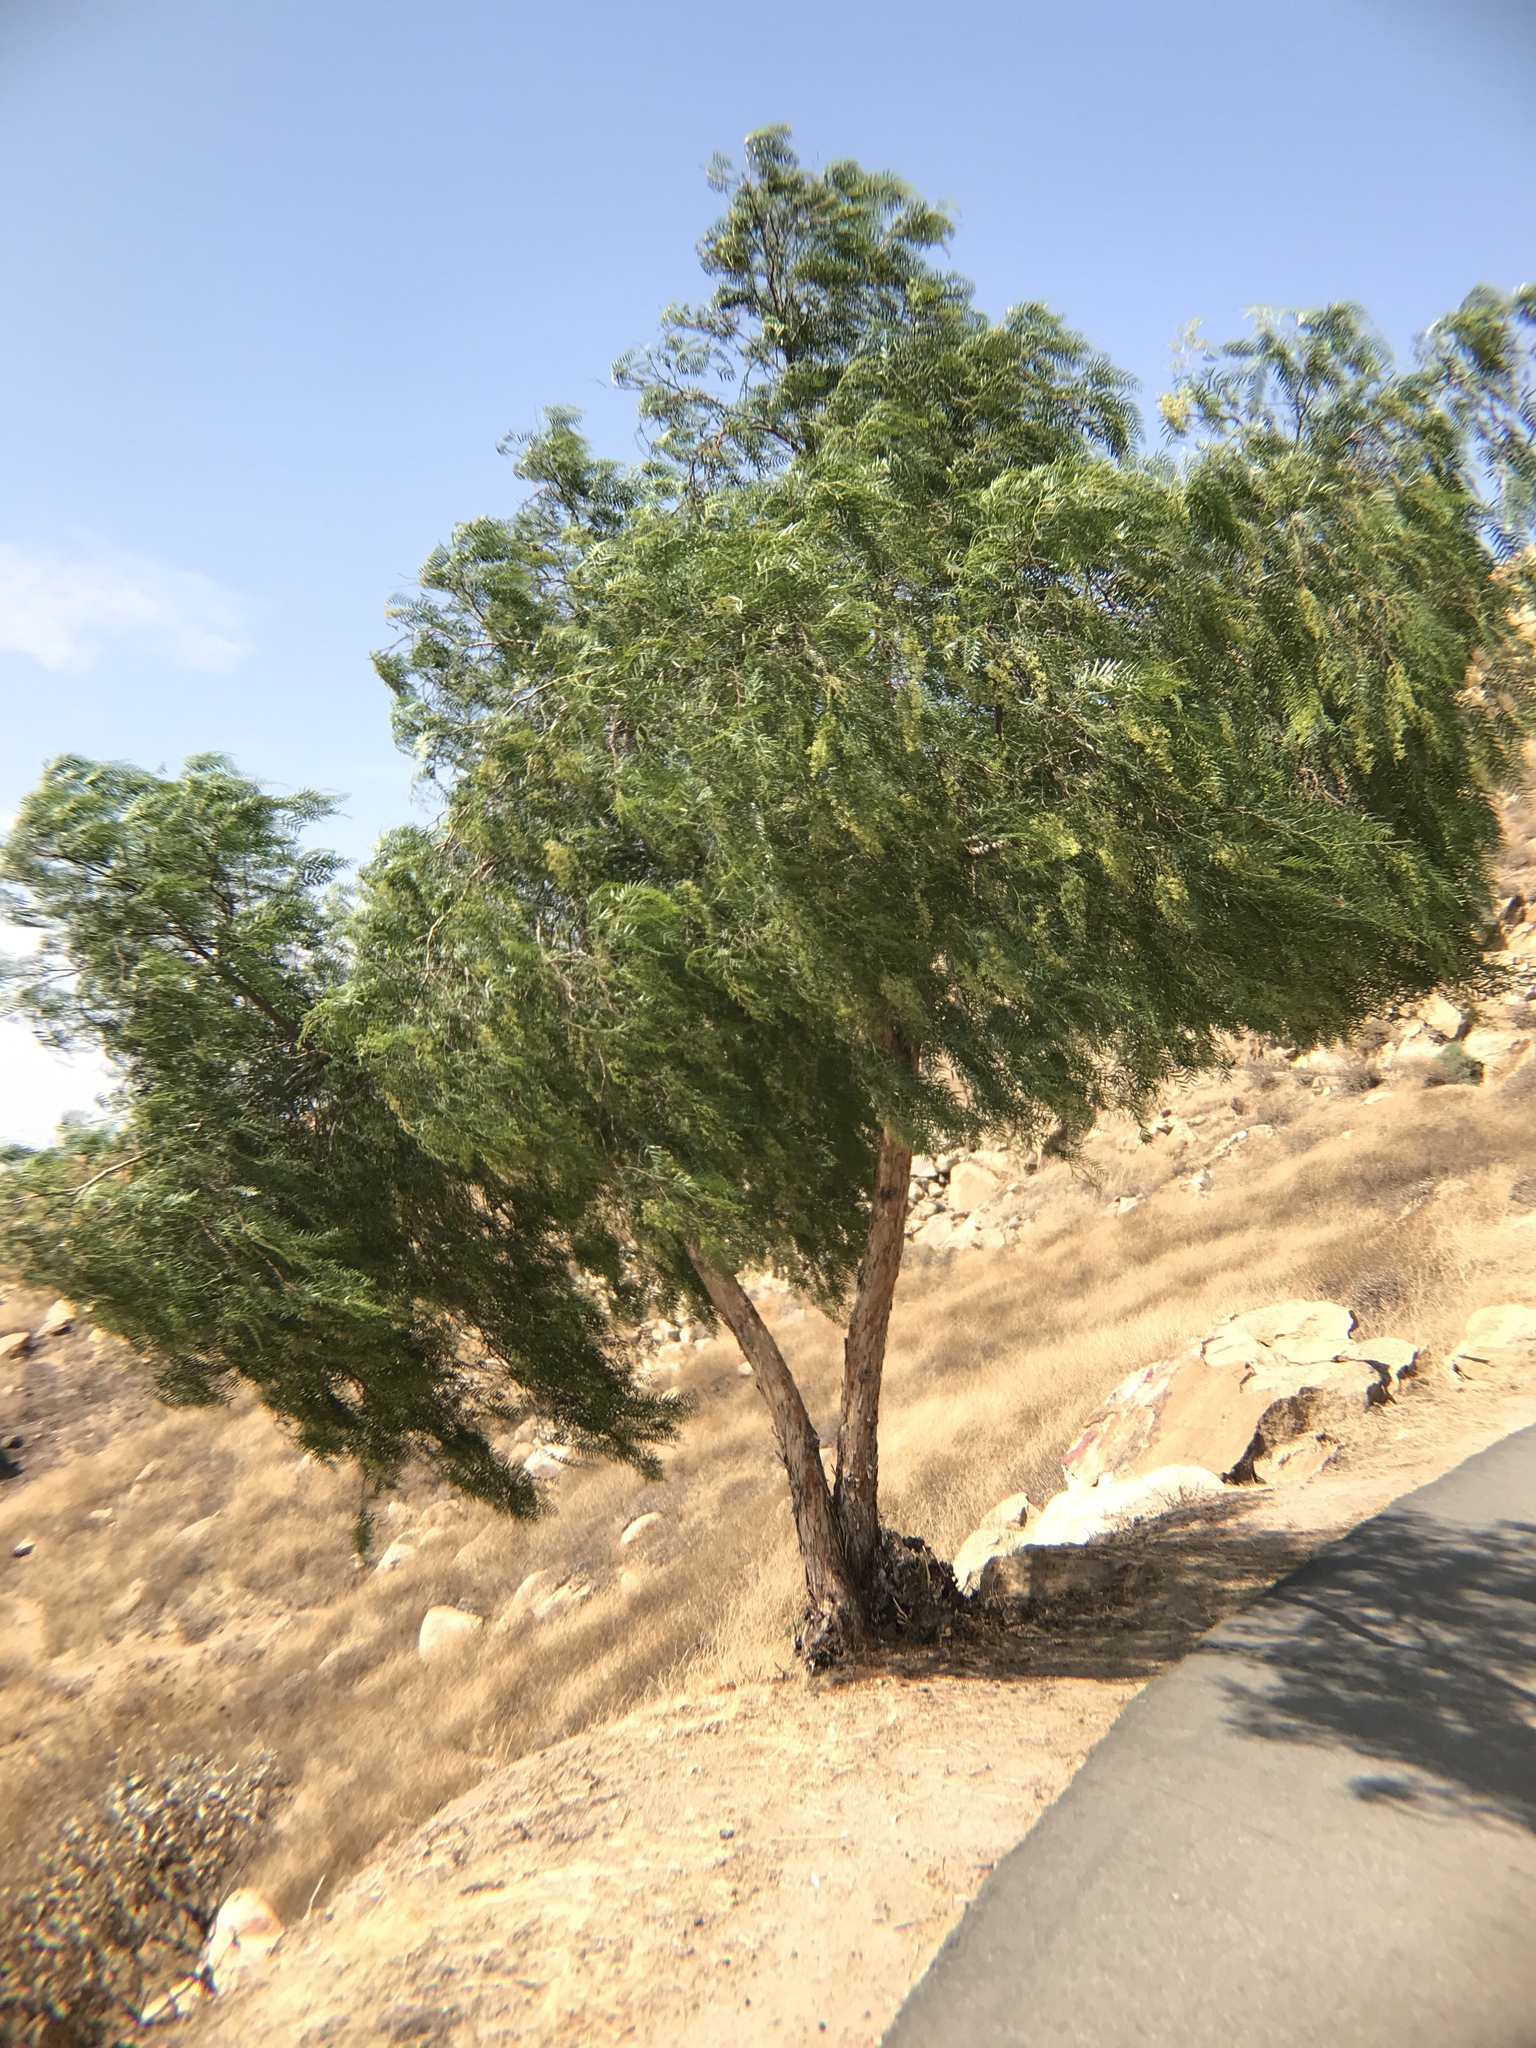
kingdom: Plantae
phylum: Tracheophyta
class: Magnoliopsida
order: Sapindales
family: Anacardiaceae
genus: Schinus
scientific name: Schinus molle
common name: Peruvian peppertree
